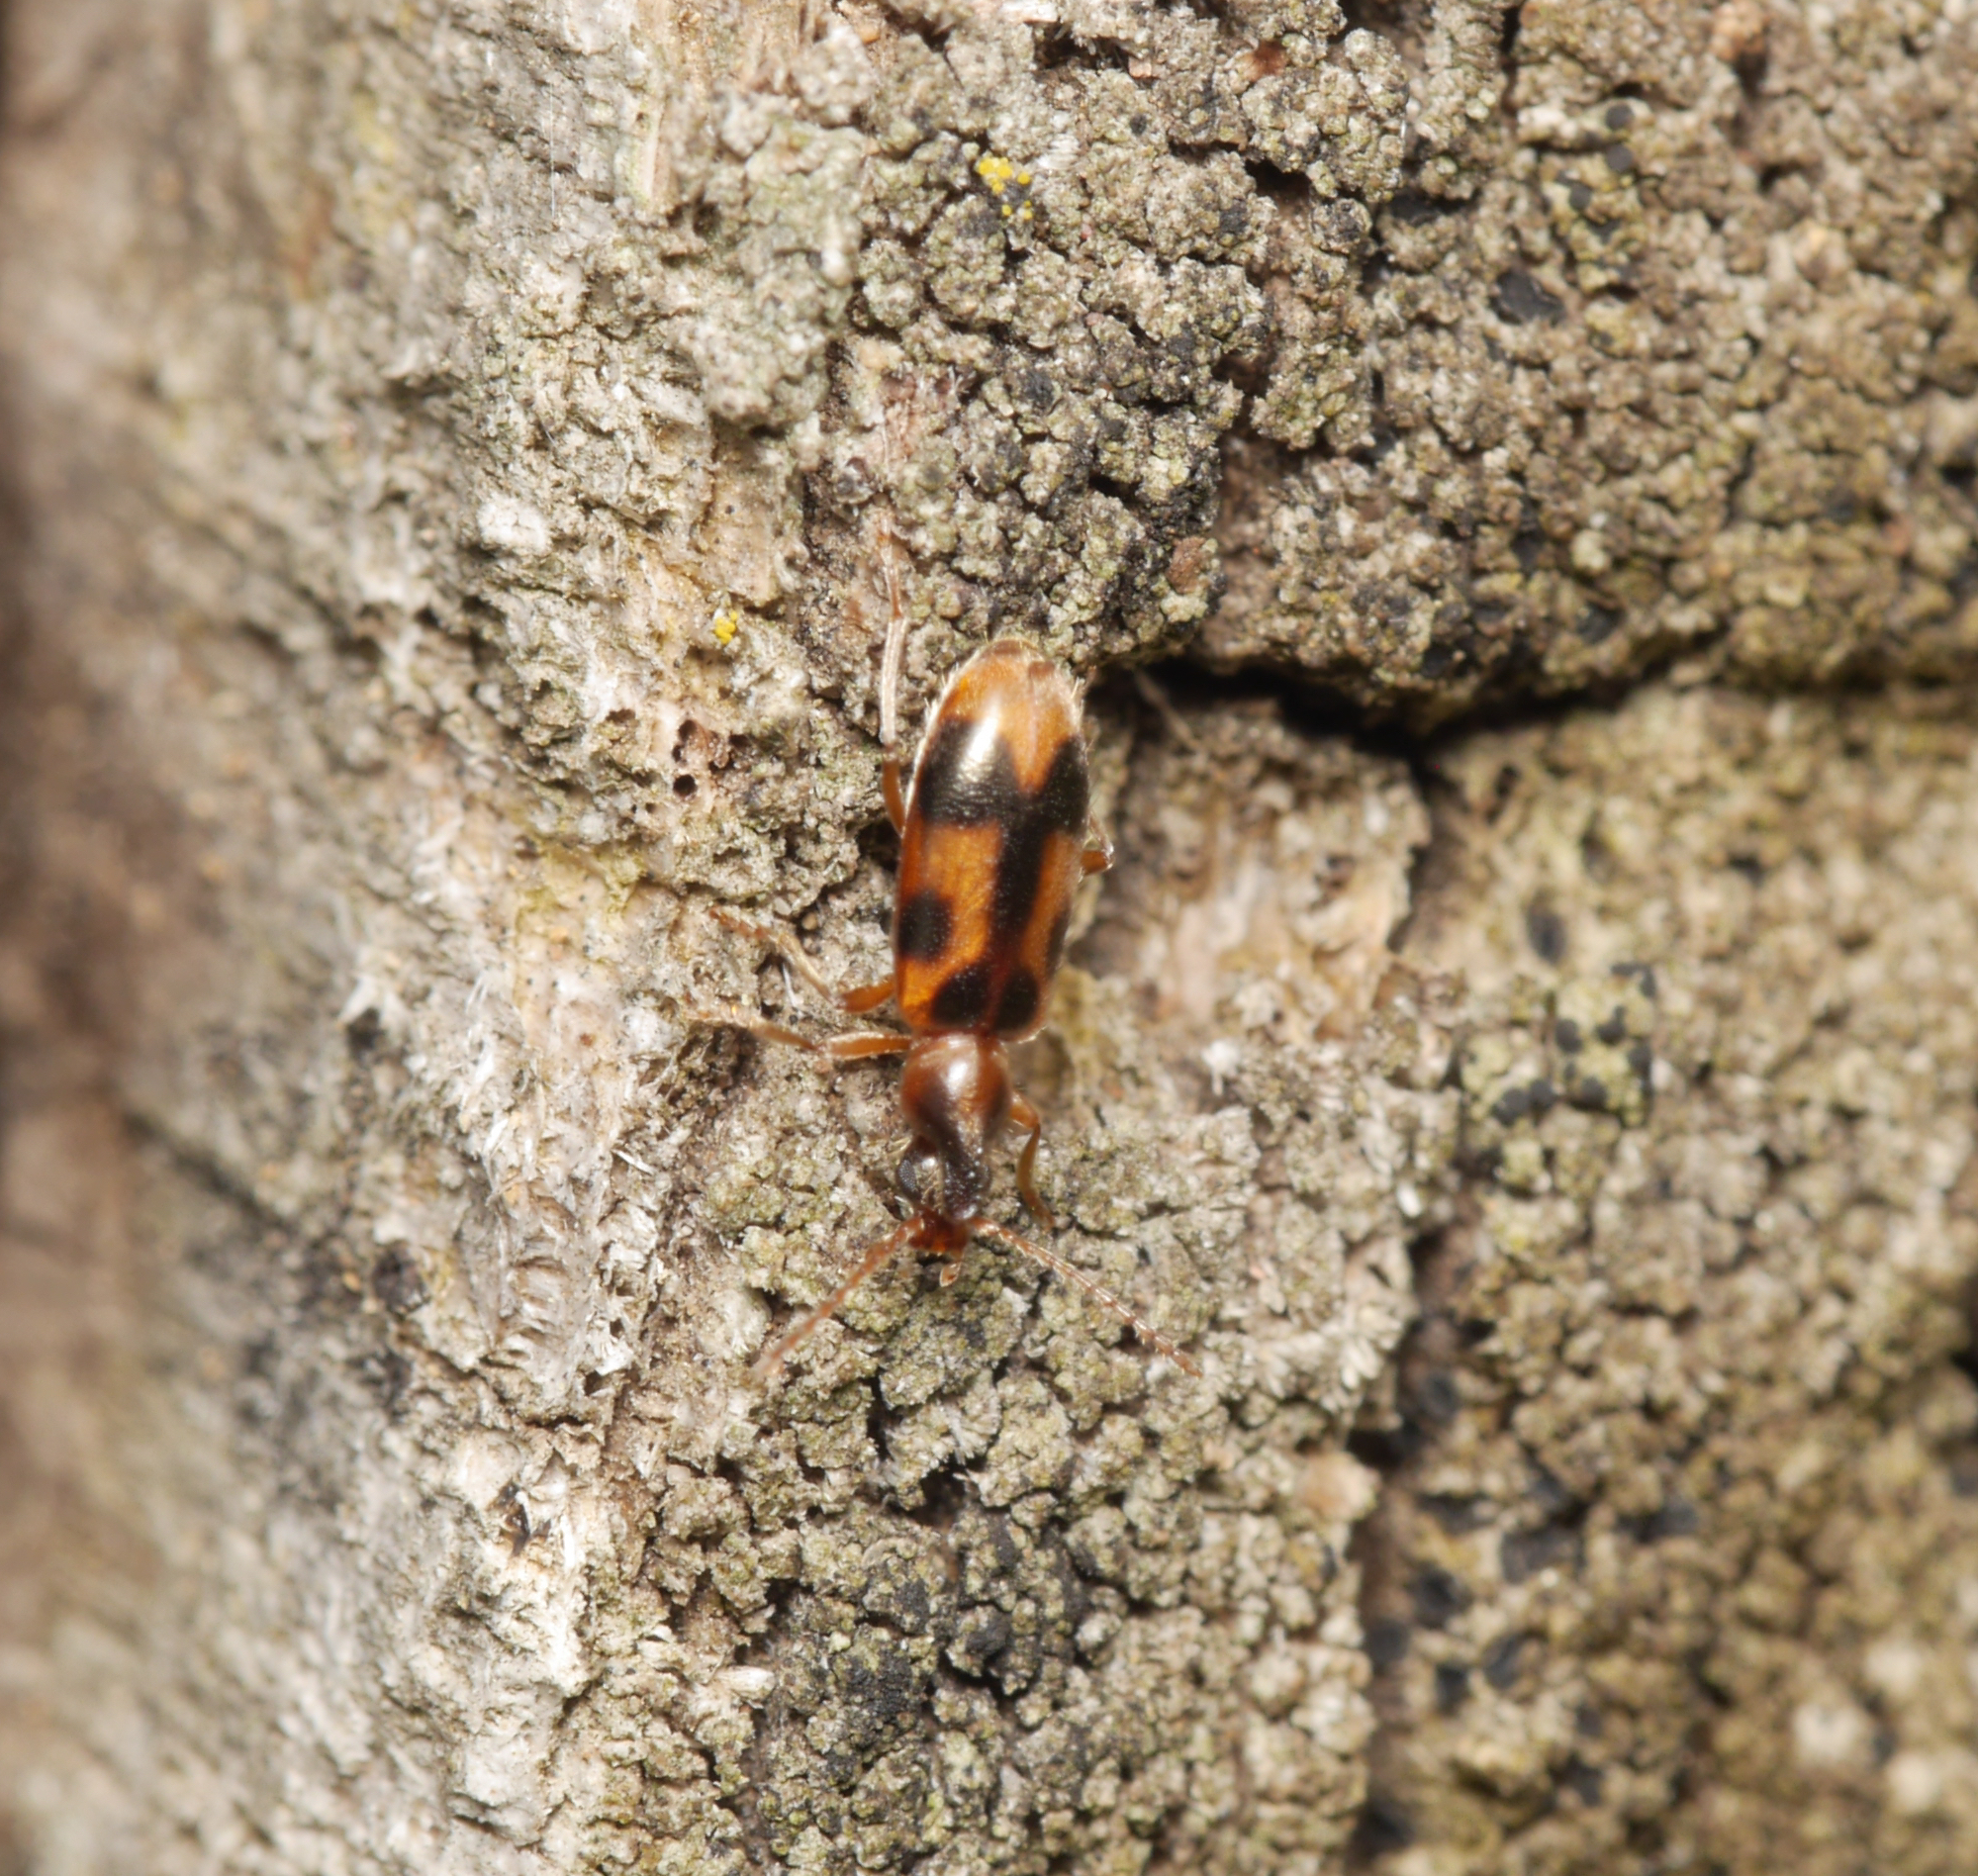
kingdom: Animalia
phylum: Arthropoda
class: Insecta
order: Coleoptera
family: Anthicidae
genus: Notoxus
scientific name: Notoxus monoceros
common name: Monoceros beetle
